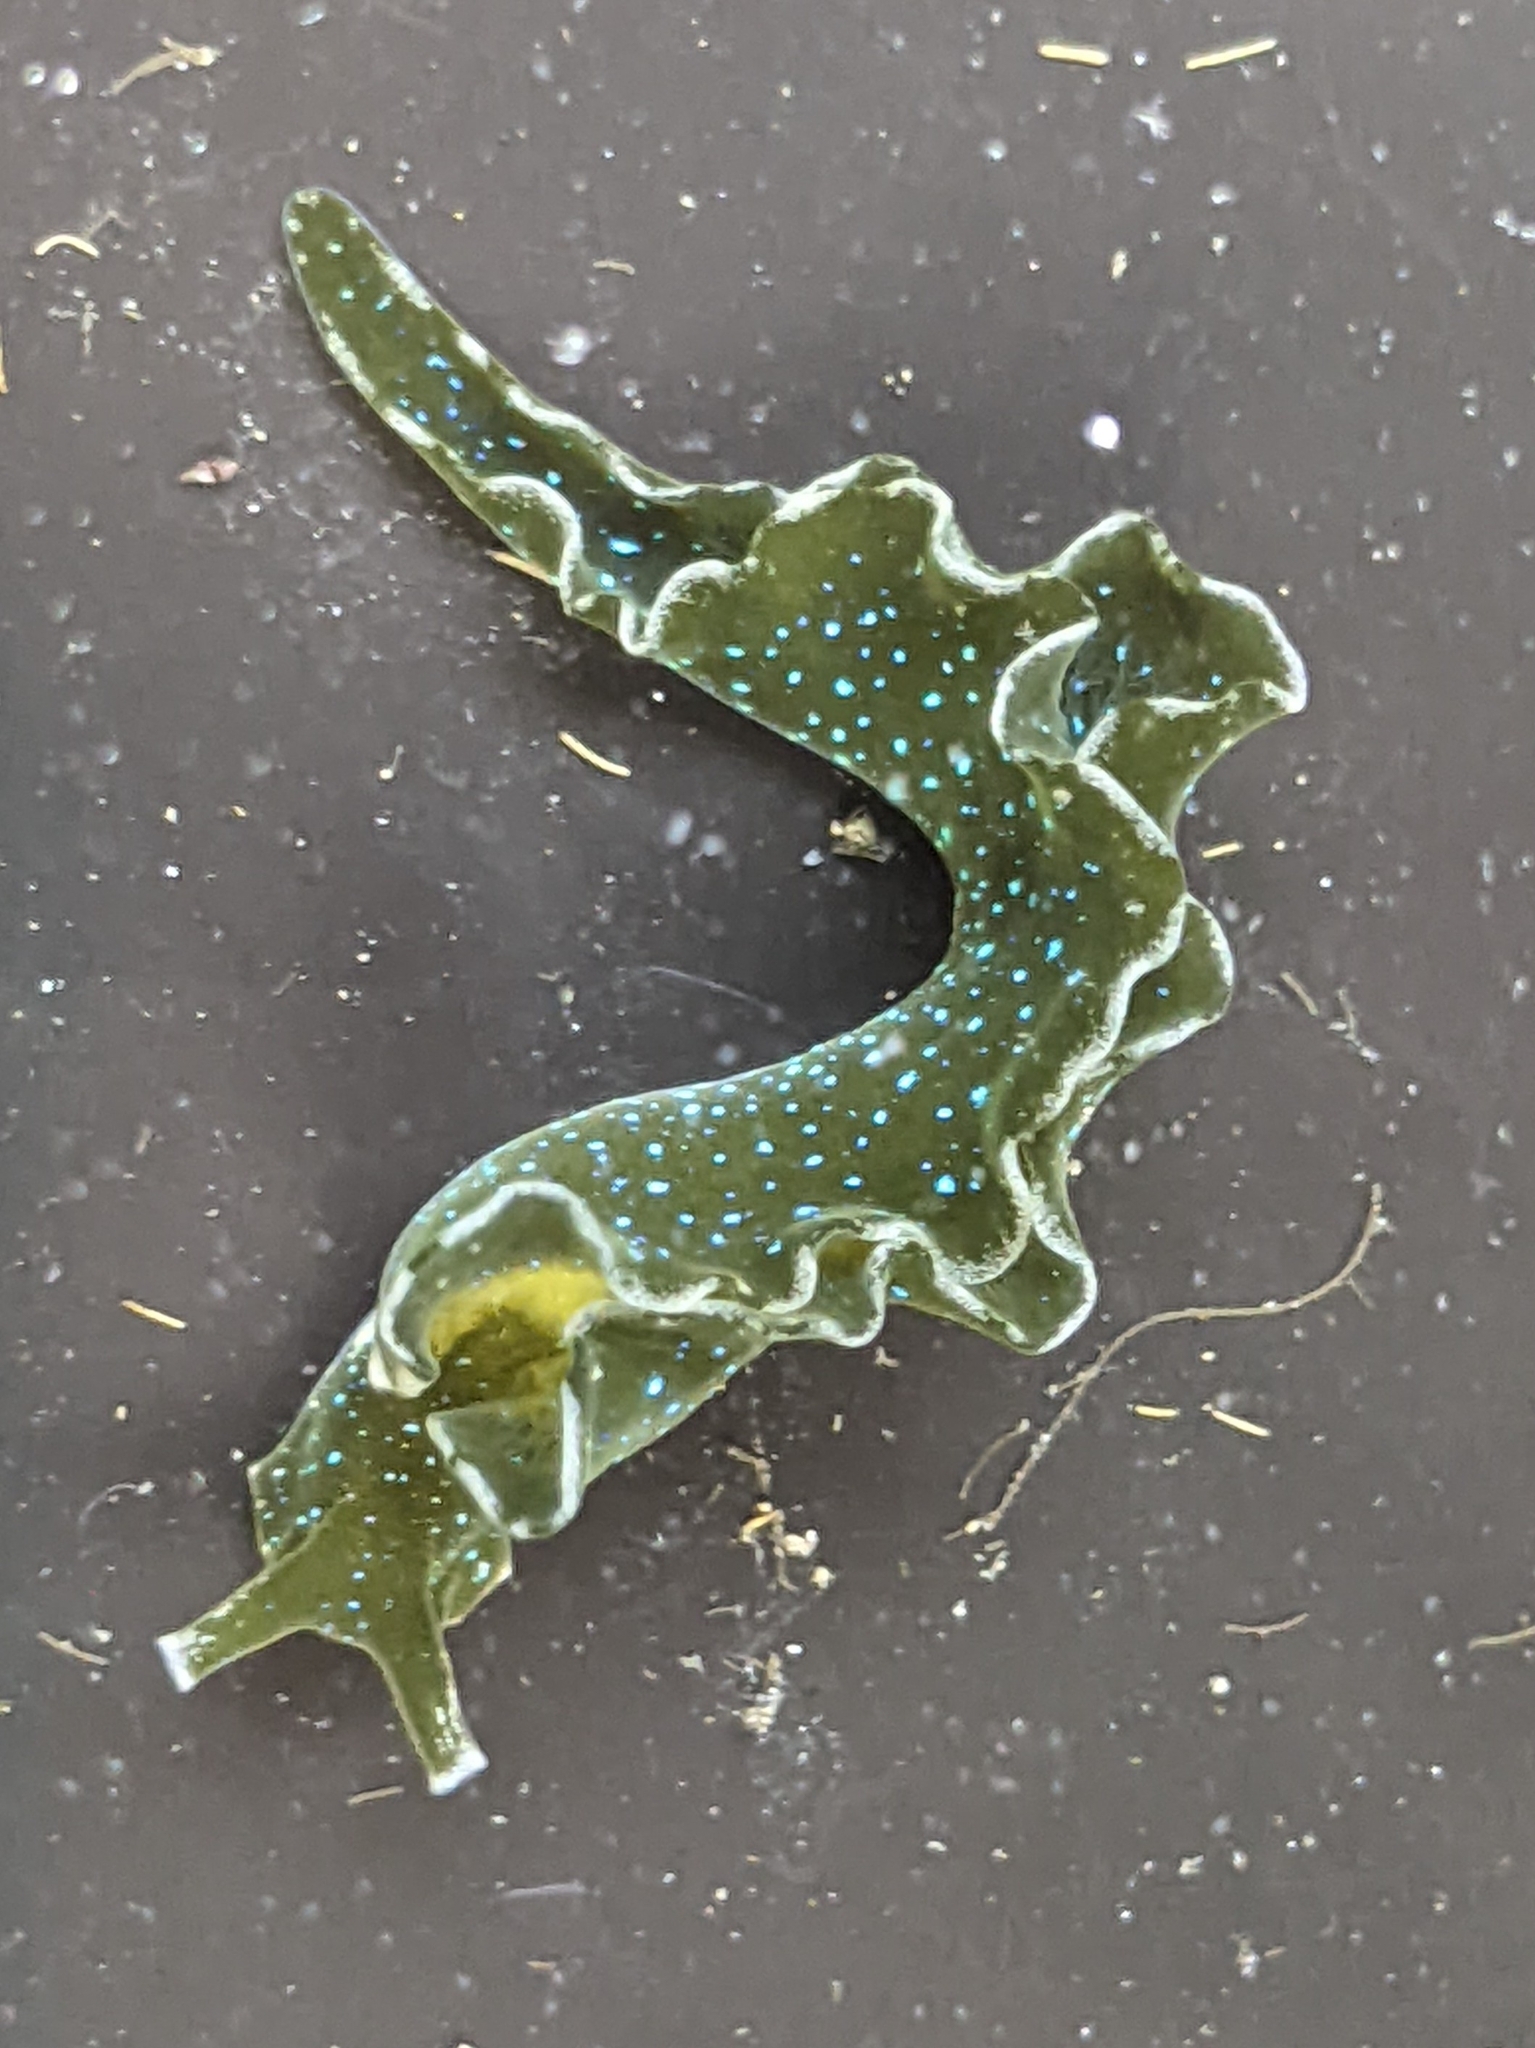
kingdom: Animalia
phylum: Mollusca
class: Gastropoda
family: Plakobranchidae
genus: Elysia
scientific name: Elysia hedgpethi
